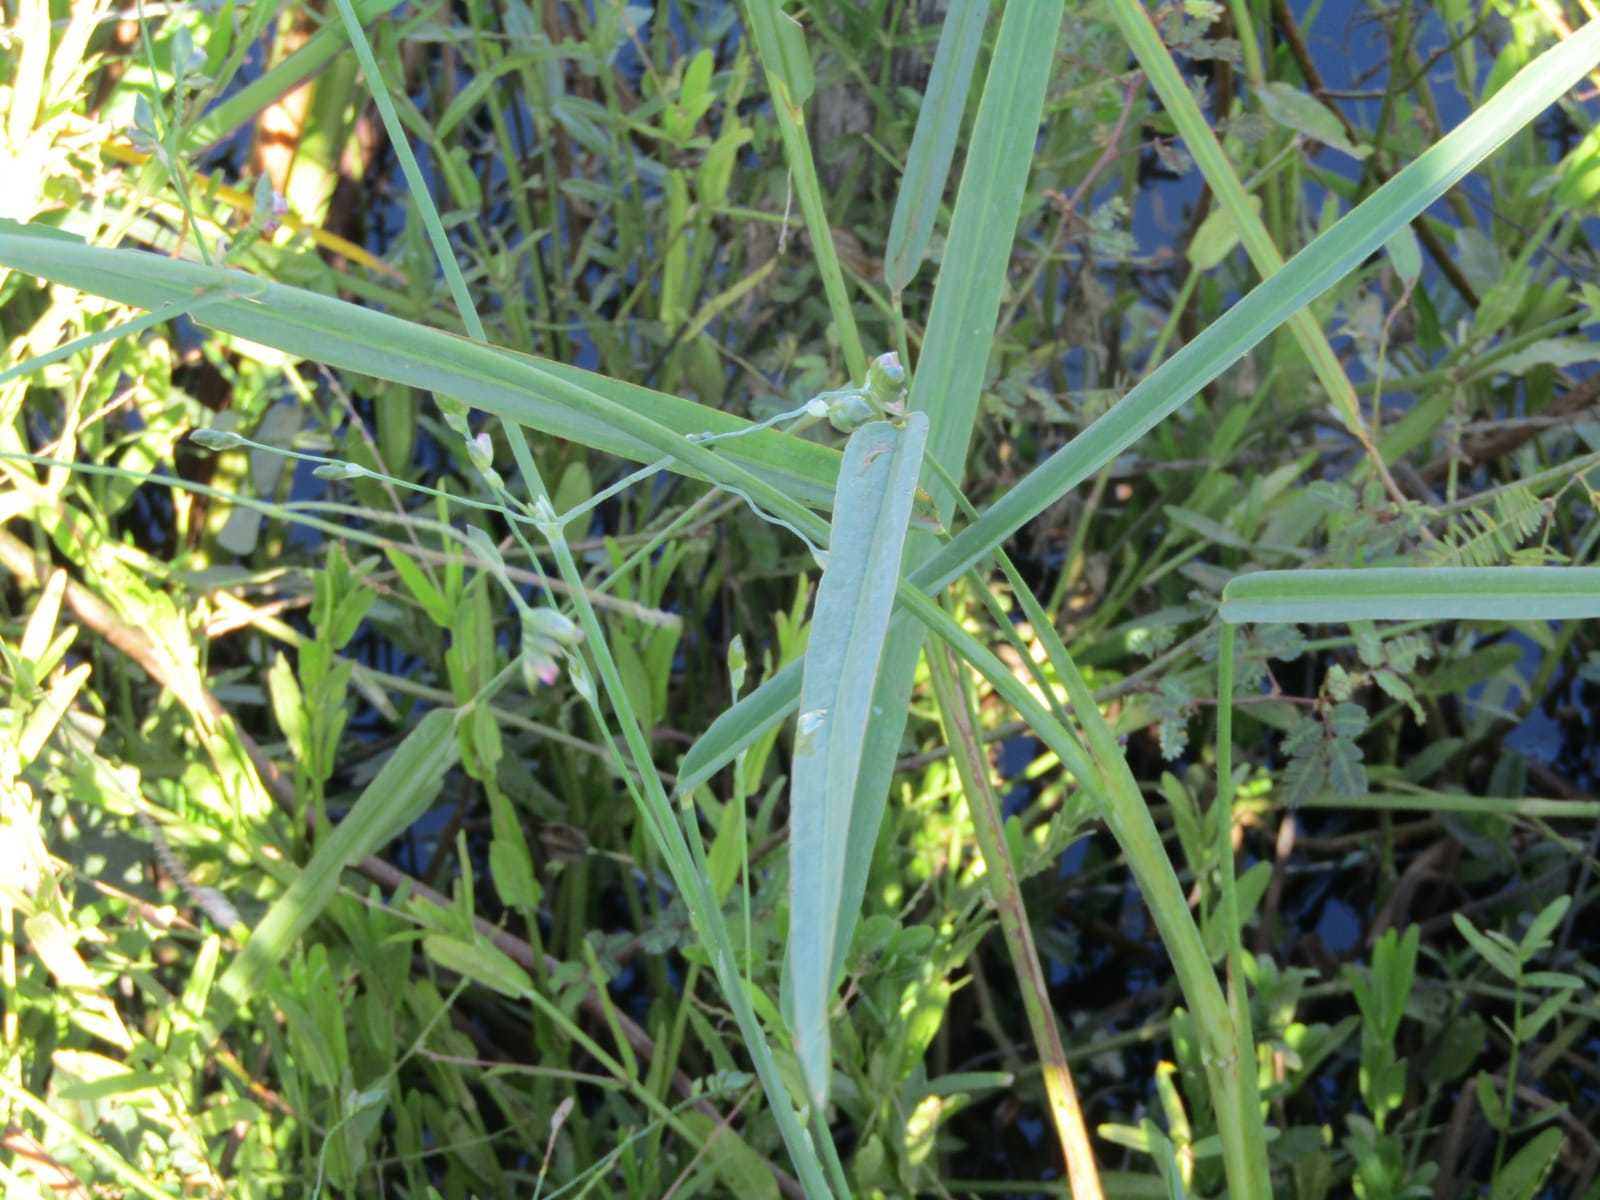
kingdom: Plantae
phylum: Tracheophyta
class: Liliopsida
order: Zingiberales
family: Marantaceae
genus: Thalia
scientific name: Thalia densibracteata
